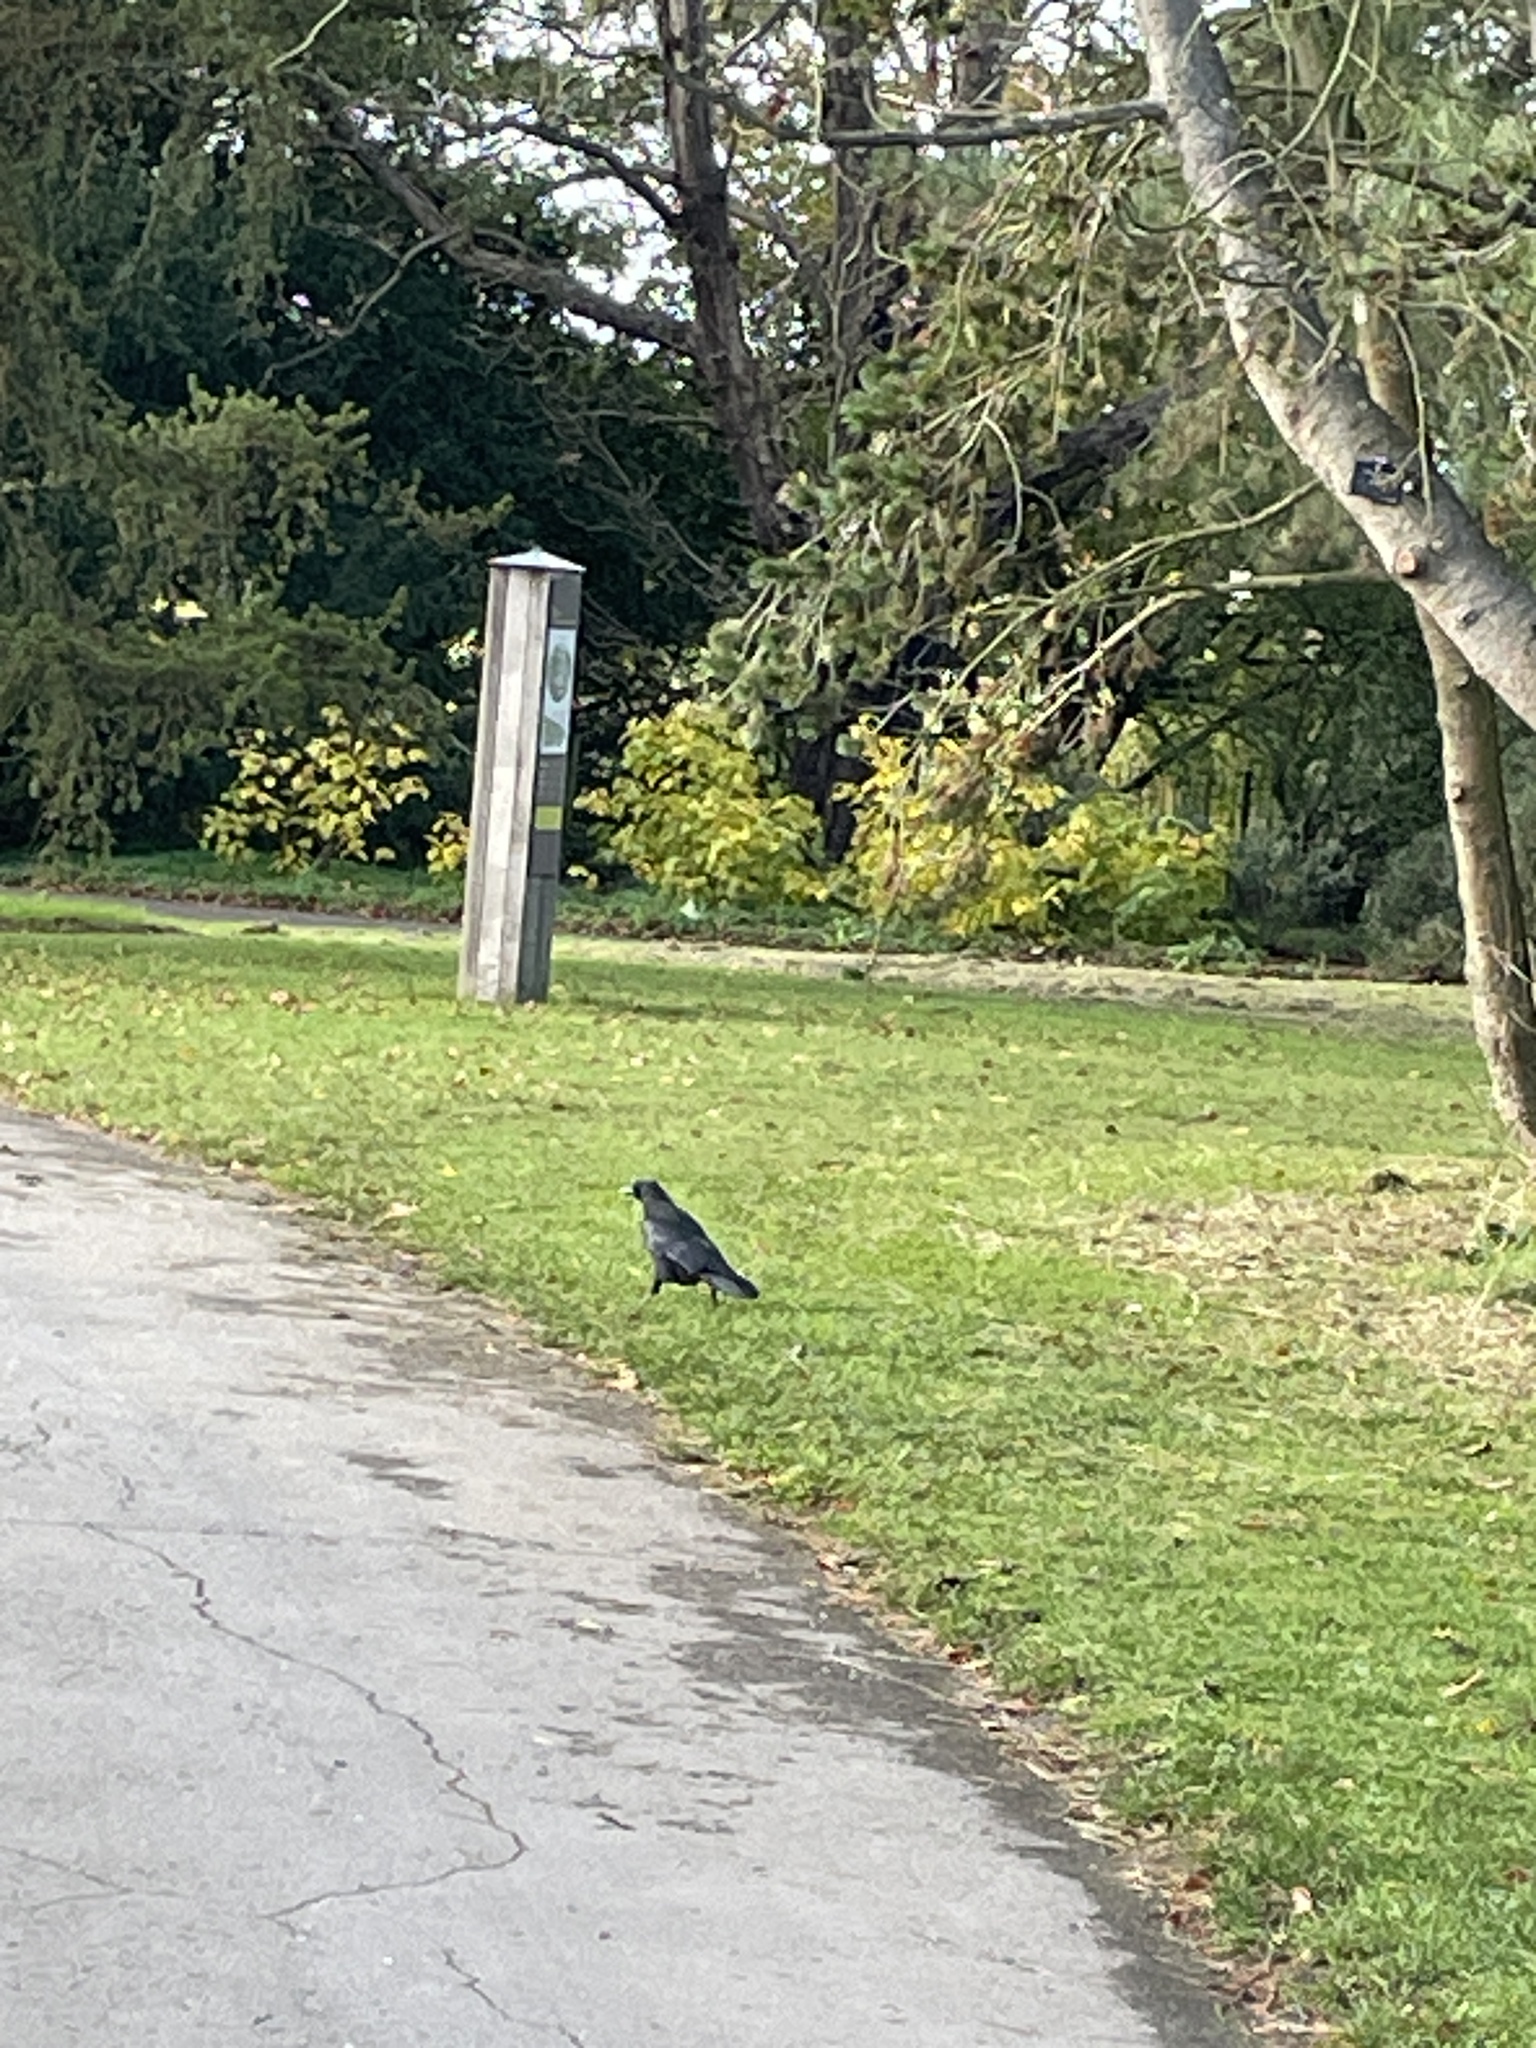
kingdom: Animalia
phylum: Chordata
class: Aves
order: Passeriformes
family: Corvidae
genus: Corvus
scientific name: Corvus corone
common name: Carrion crow
